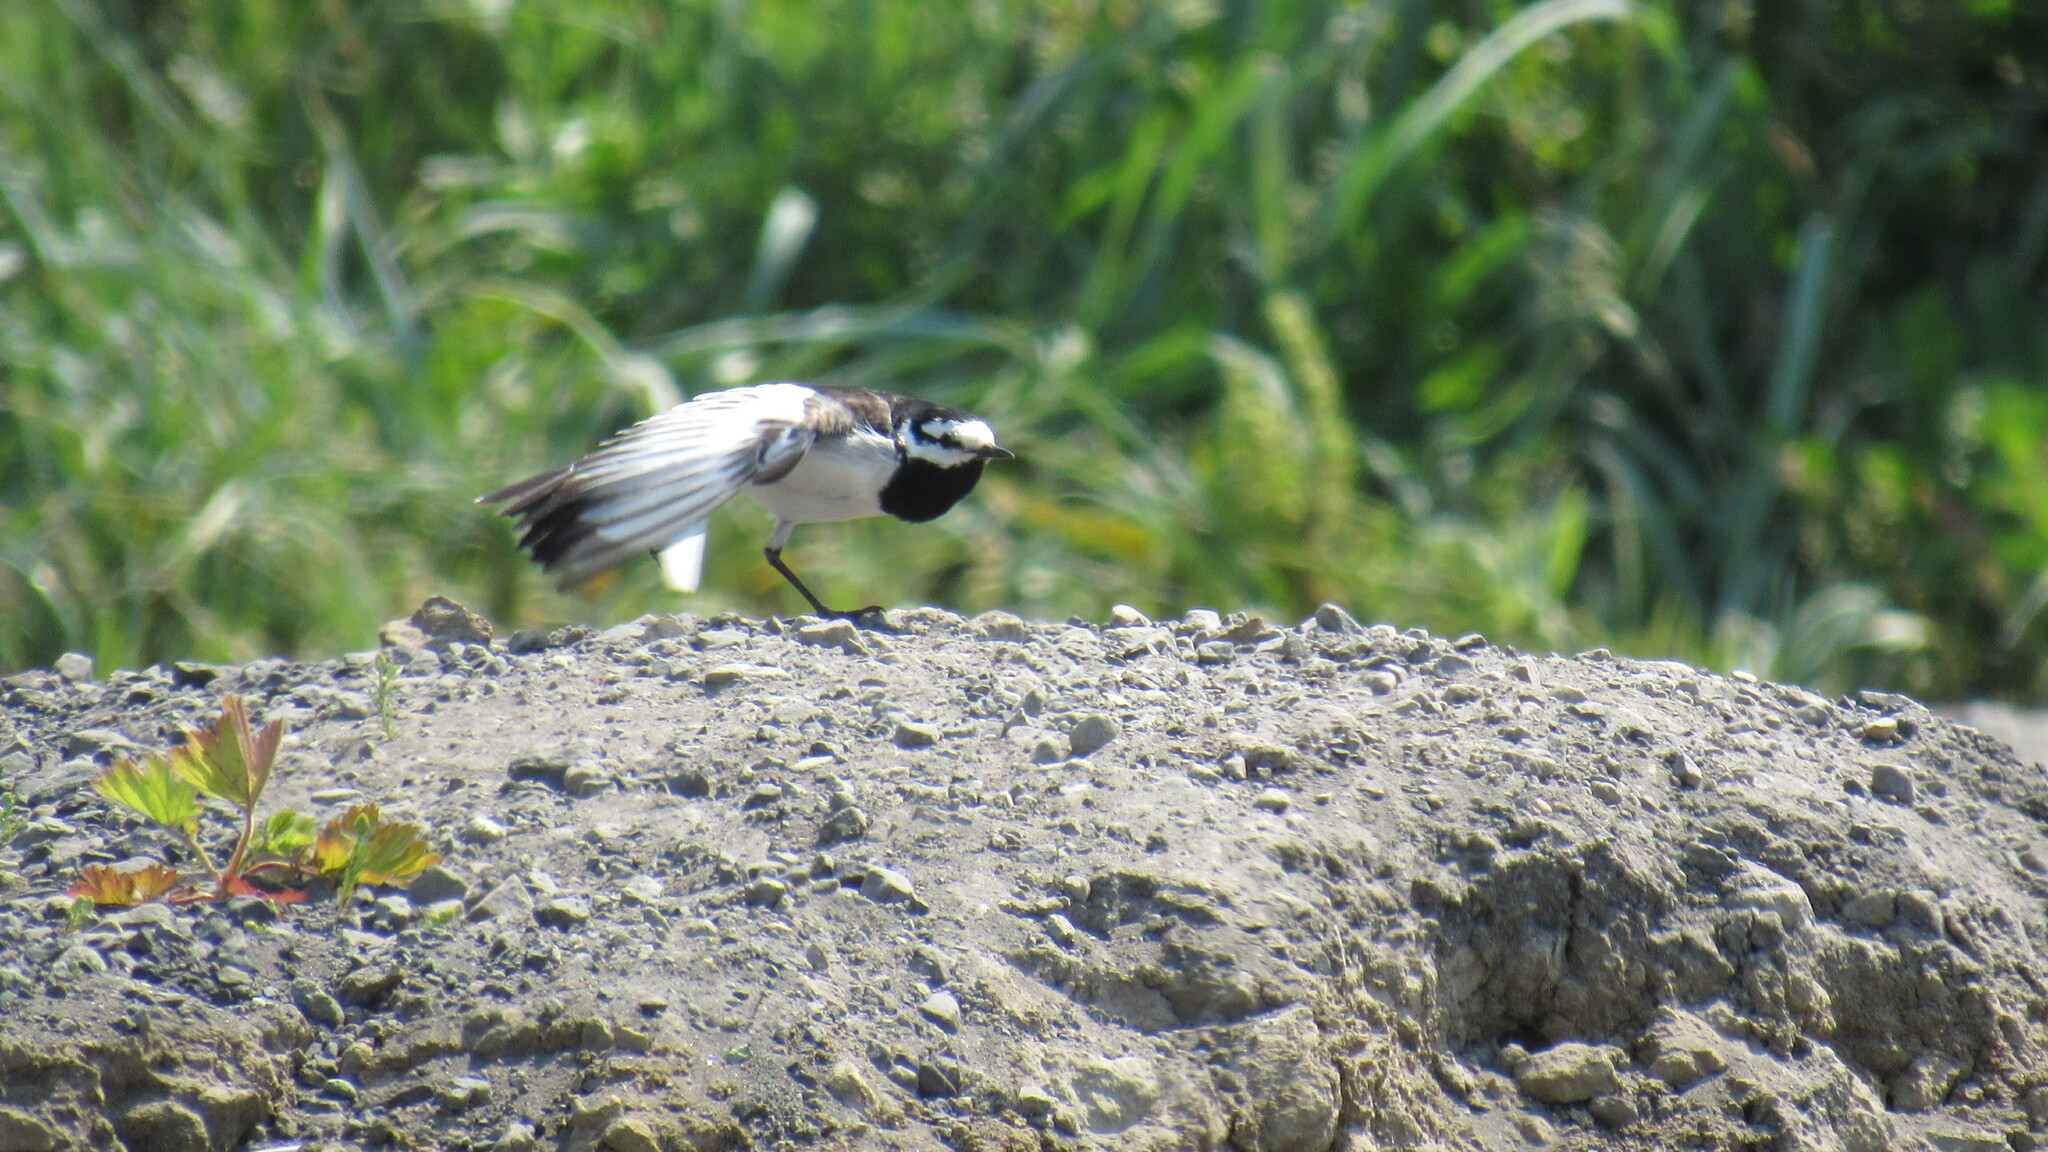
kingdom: Animalia
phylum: Chordata
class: Aves
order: Passeriformes
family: Motacillidae
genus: Motacilla
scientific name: Motacilla alba
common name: White wagtail
